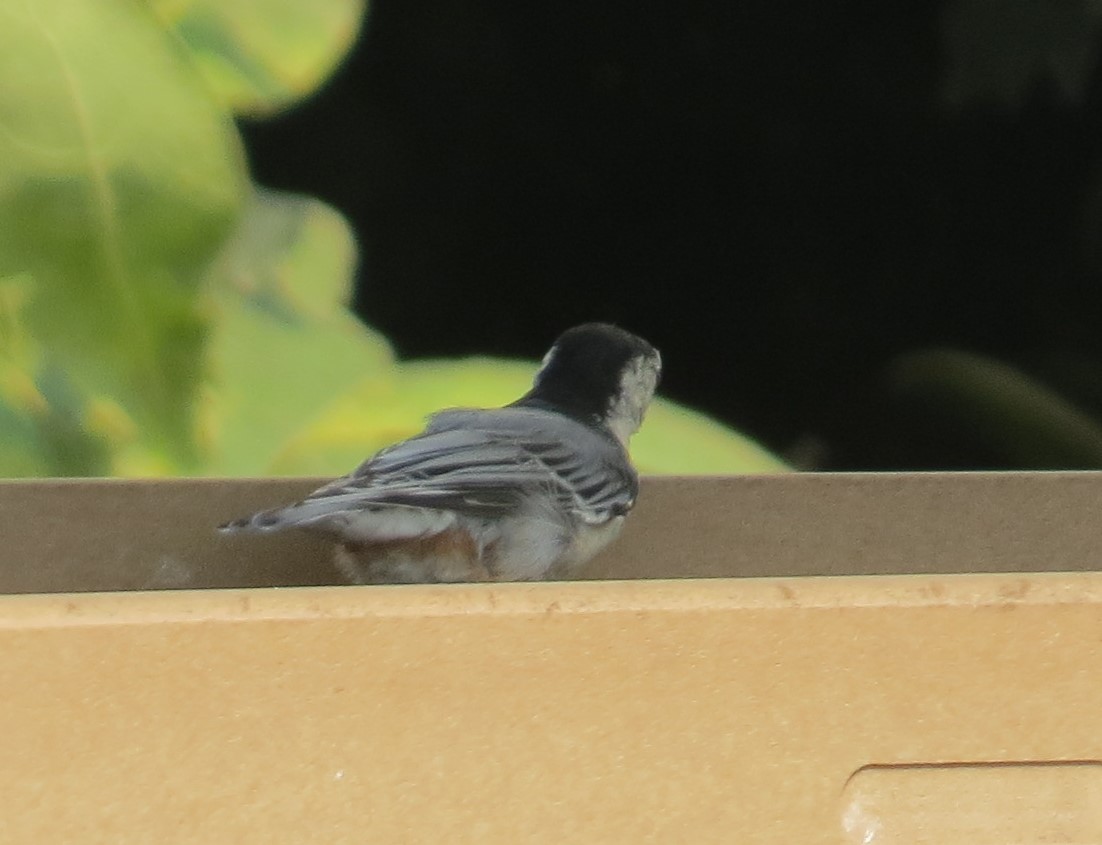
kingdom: Animalia
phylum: Chordata
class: Aves
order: Passeriformes
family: Sittidae
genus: Sitta
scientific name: Sitta carolinensis
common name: White-breasted nuthatch
